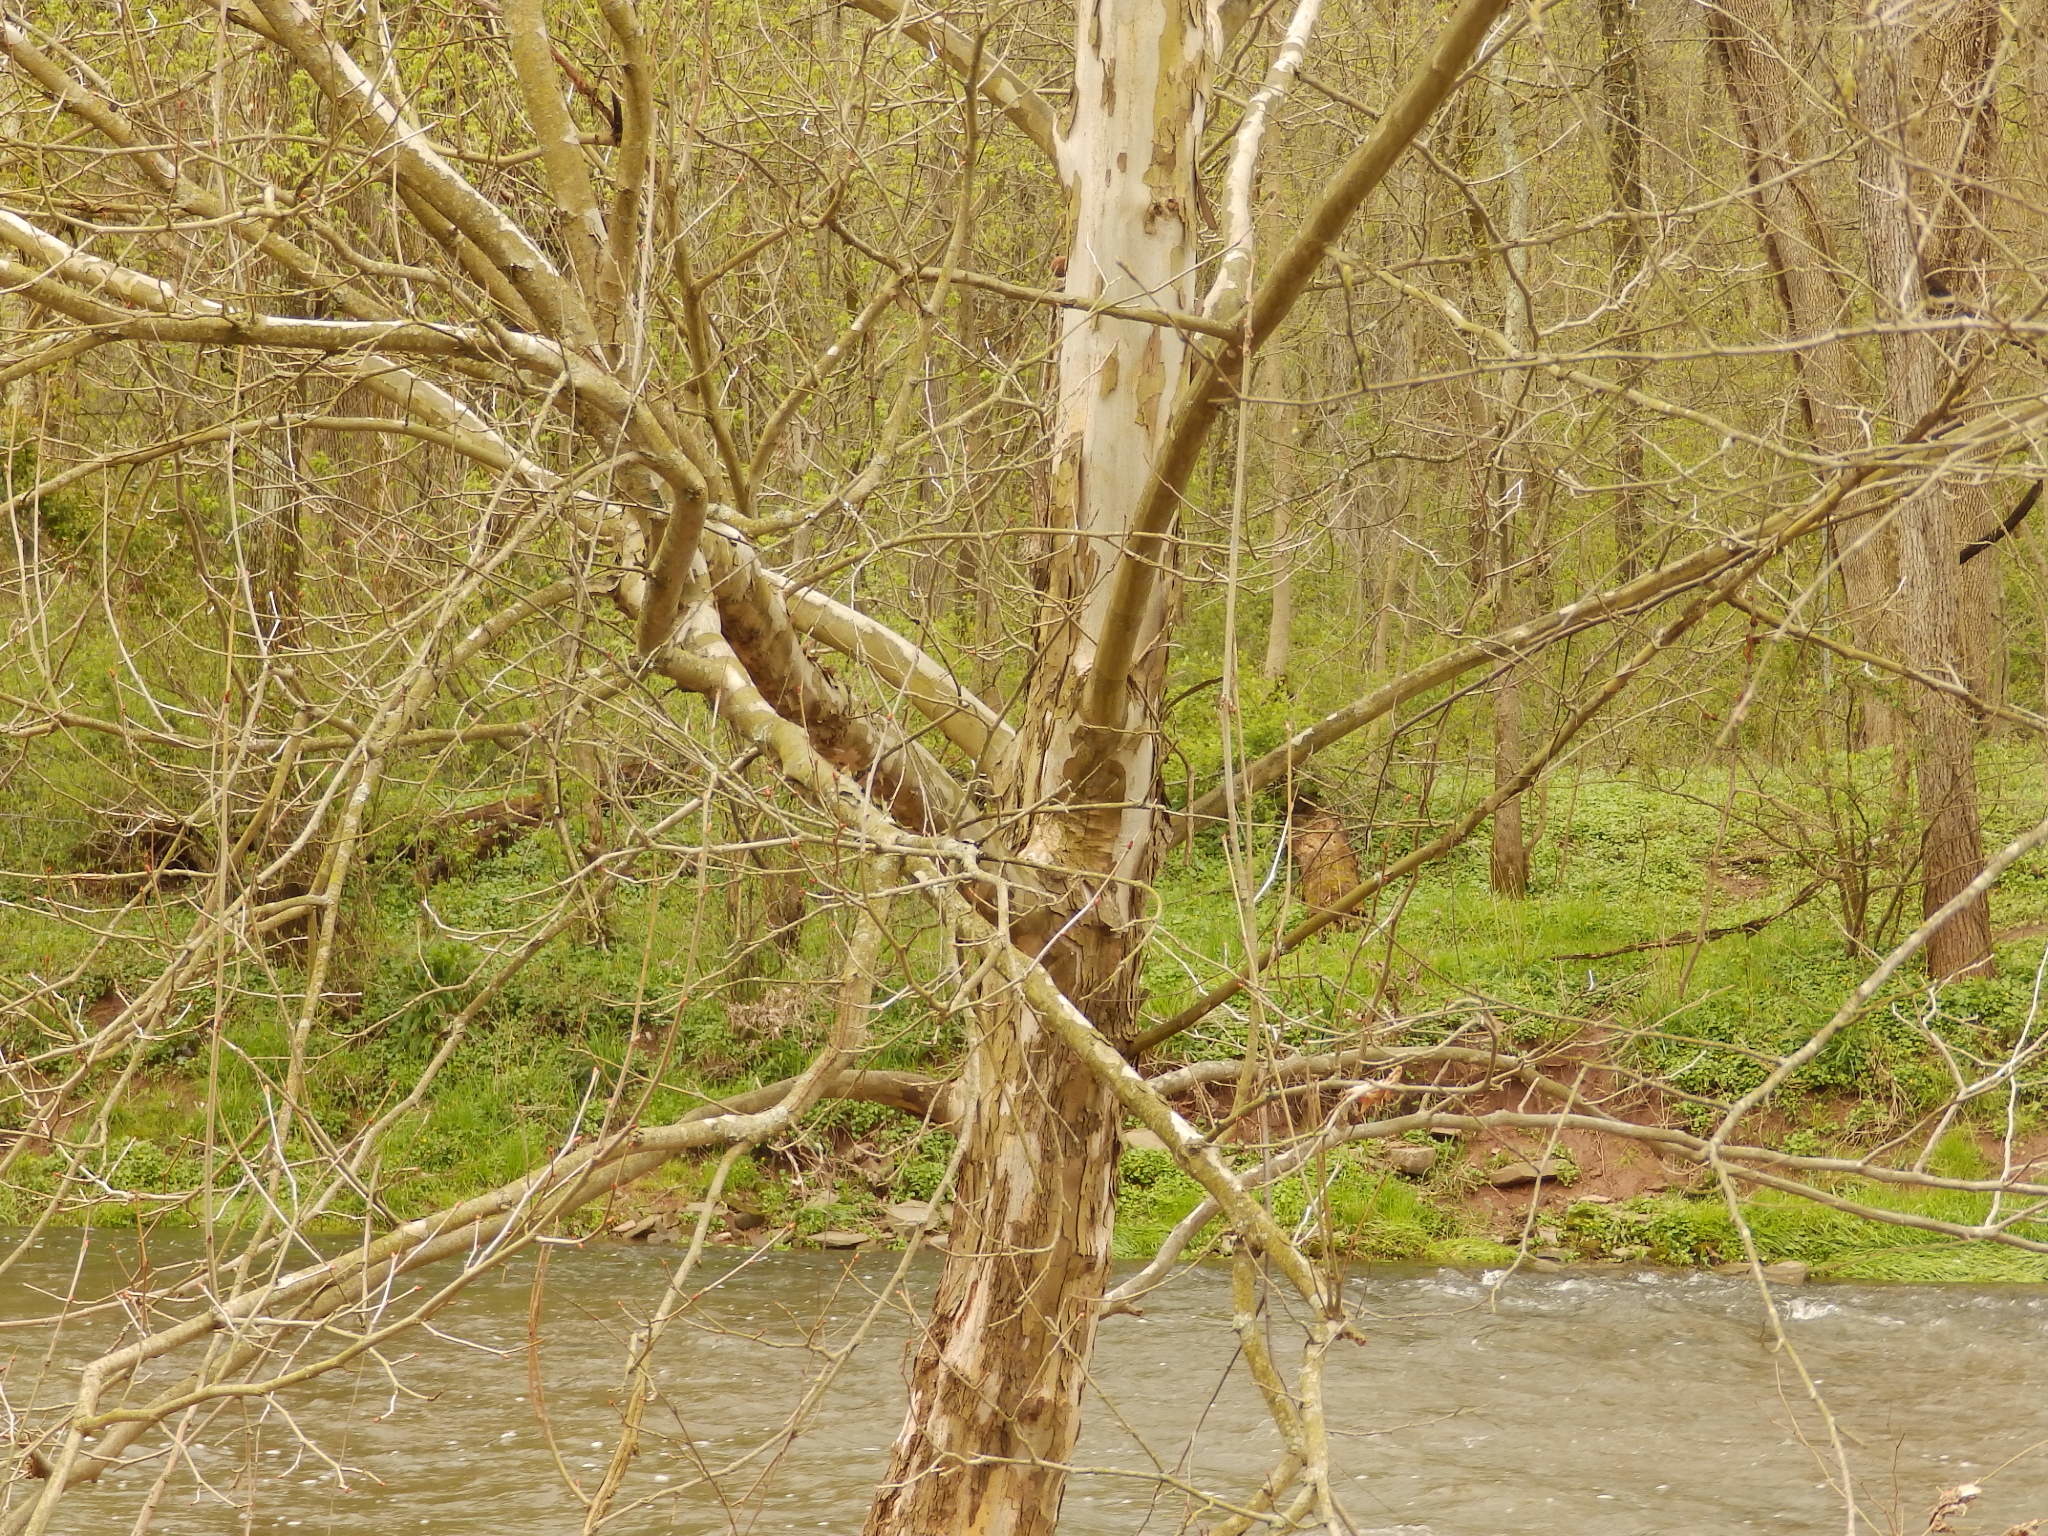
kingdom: Plantae
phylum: Tracheophyta
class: Magnoliopsida
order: Proteales
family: Platanaceae
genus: Platanus
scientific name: Platanus occidentalis
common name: American sycamore
